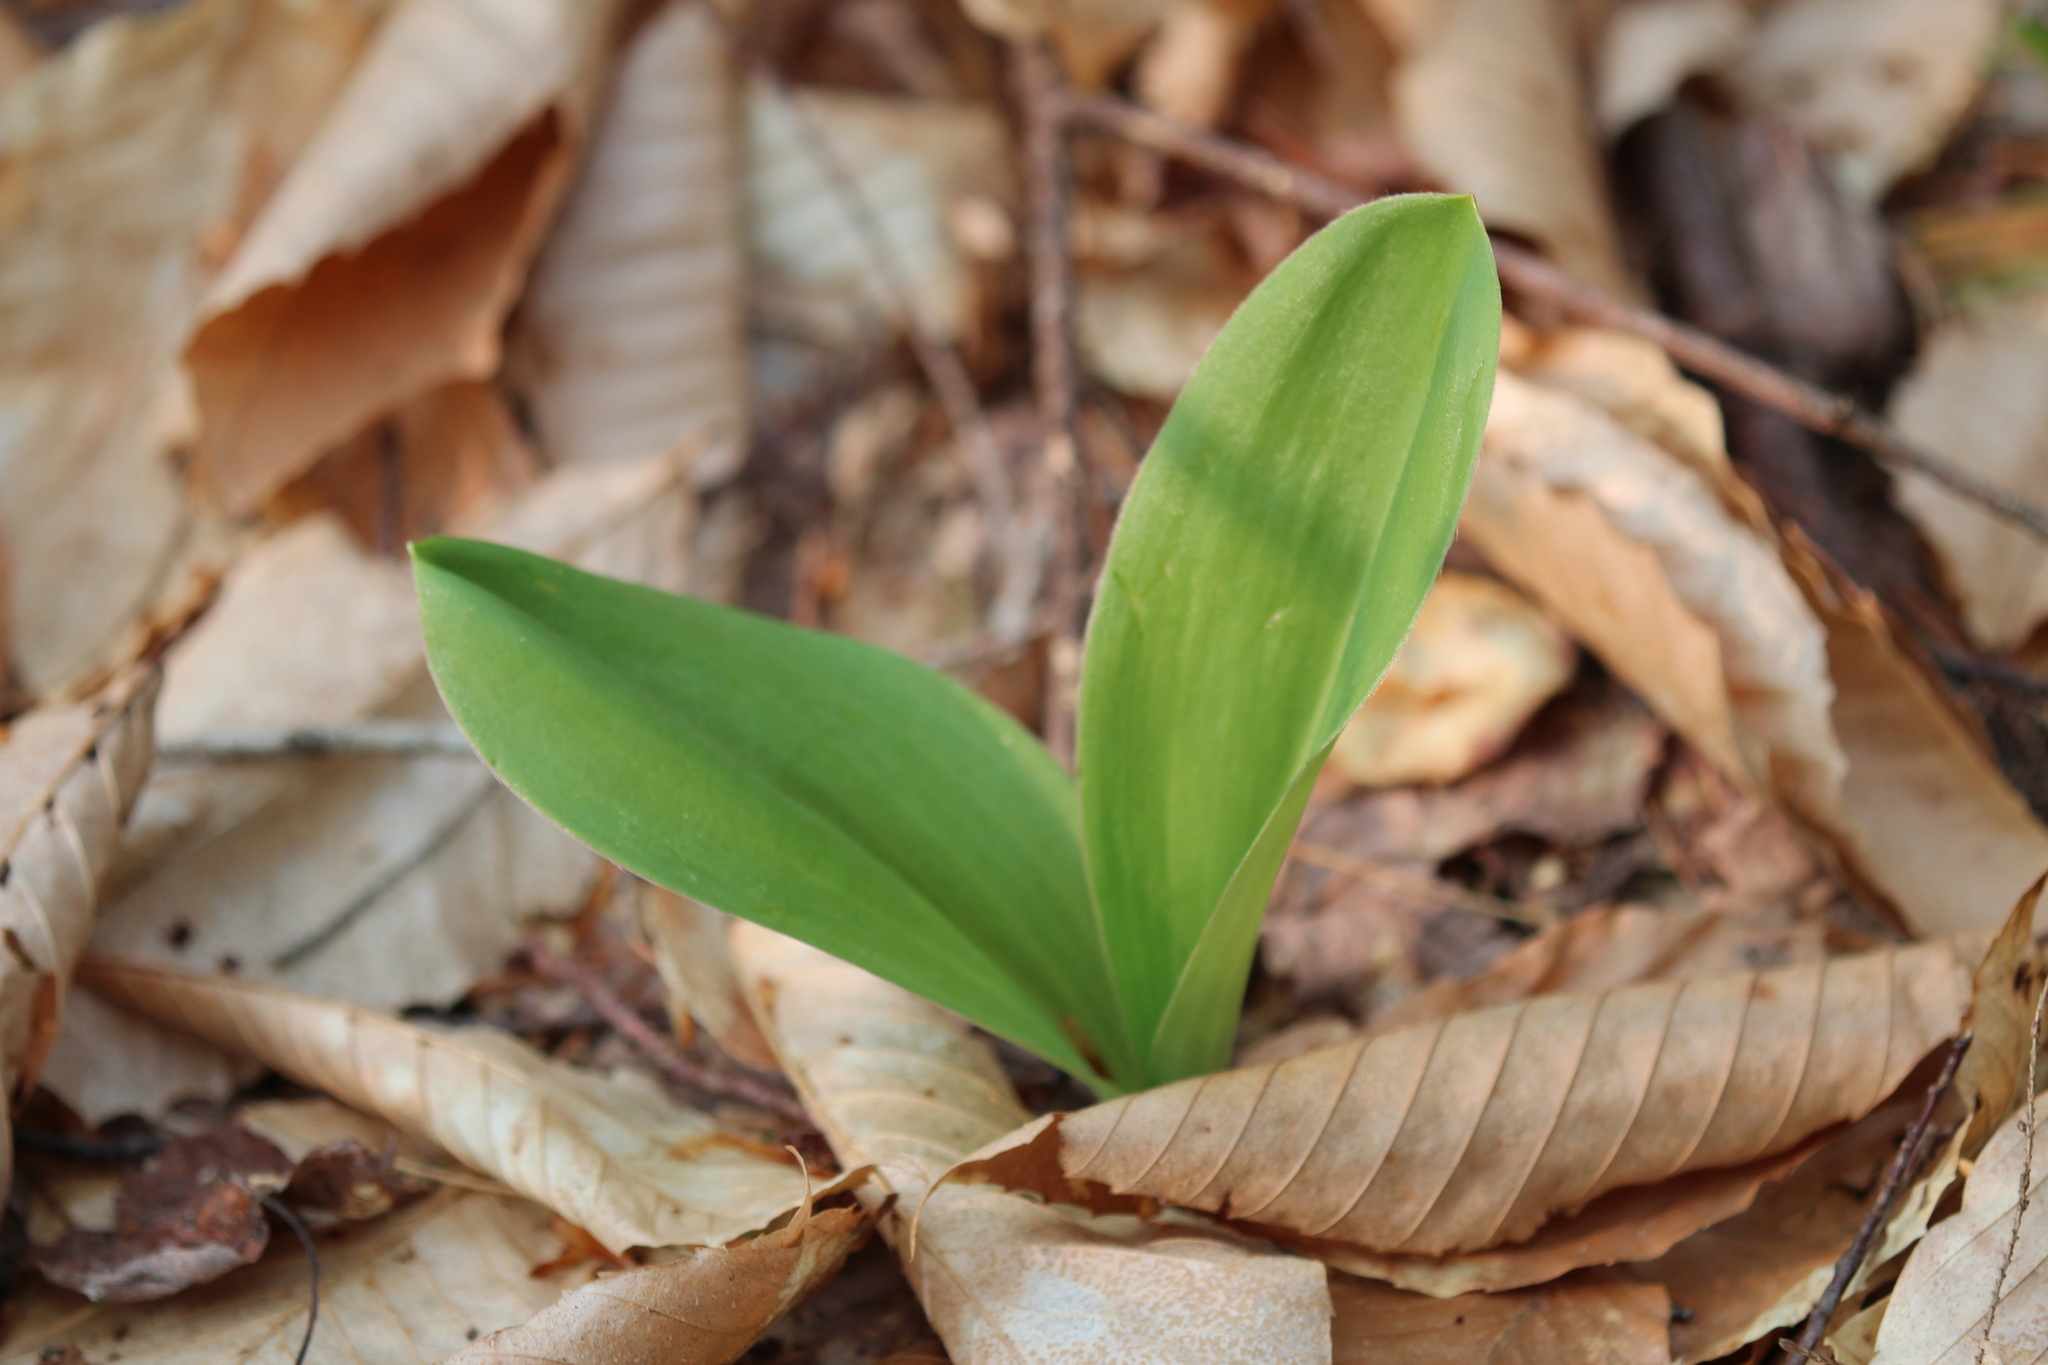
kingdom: Plantae
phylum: Tracheophyta
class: Liliopsida
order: Liliales
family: Liliaceae
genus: Clintonia
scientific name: Clintonia borealis
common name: Yellow clintonia
